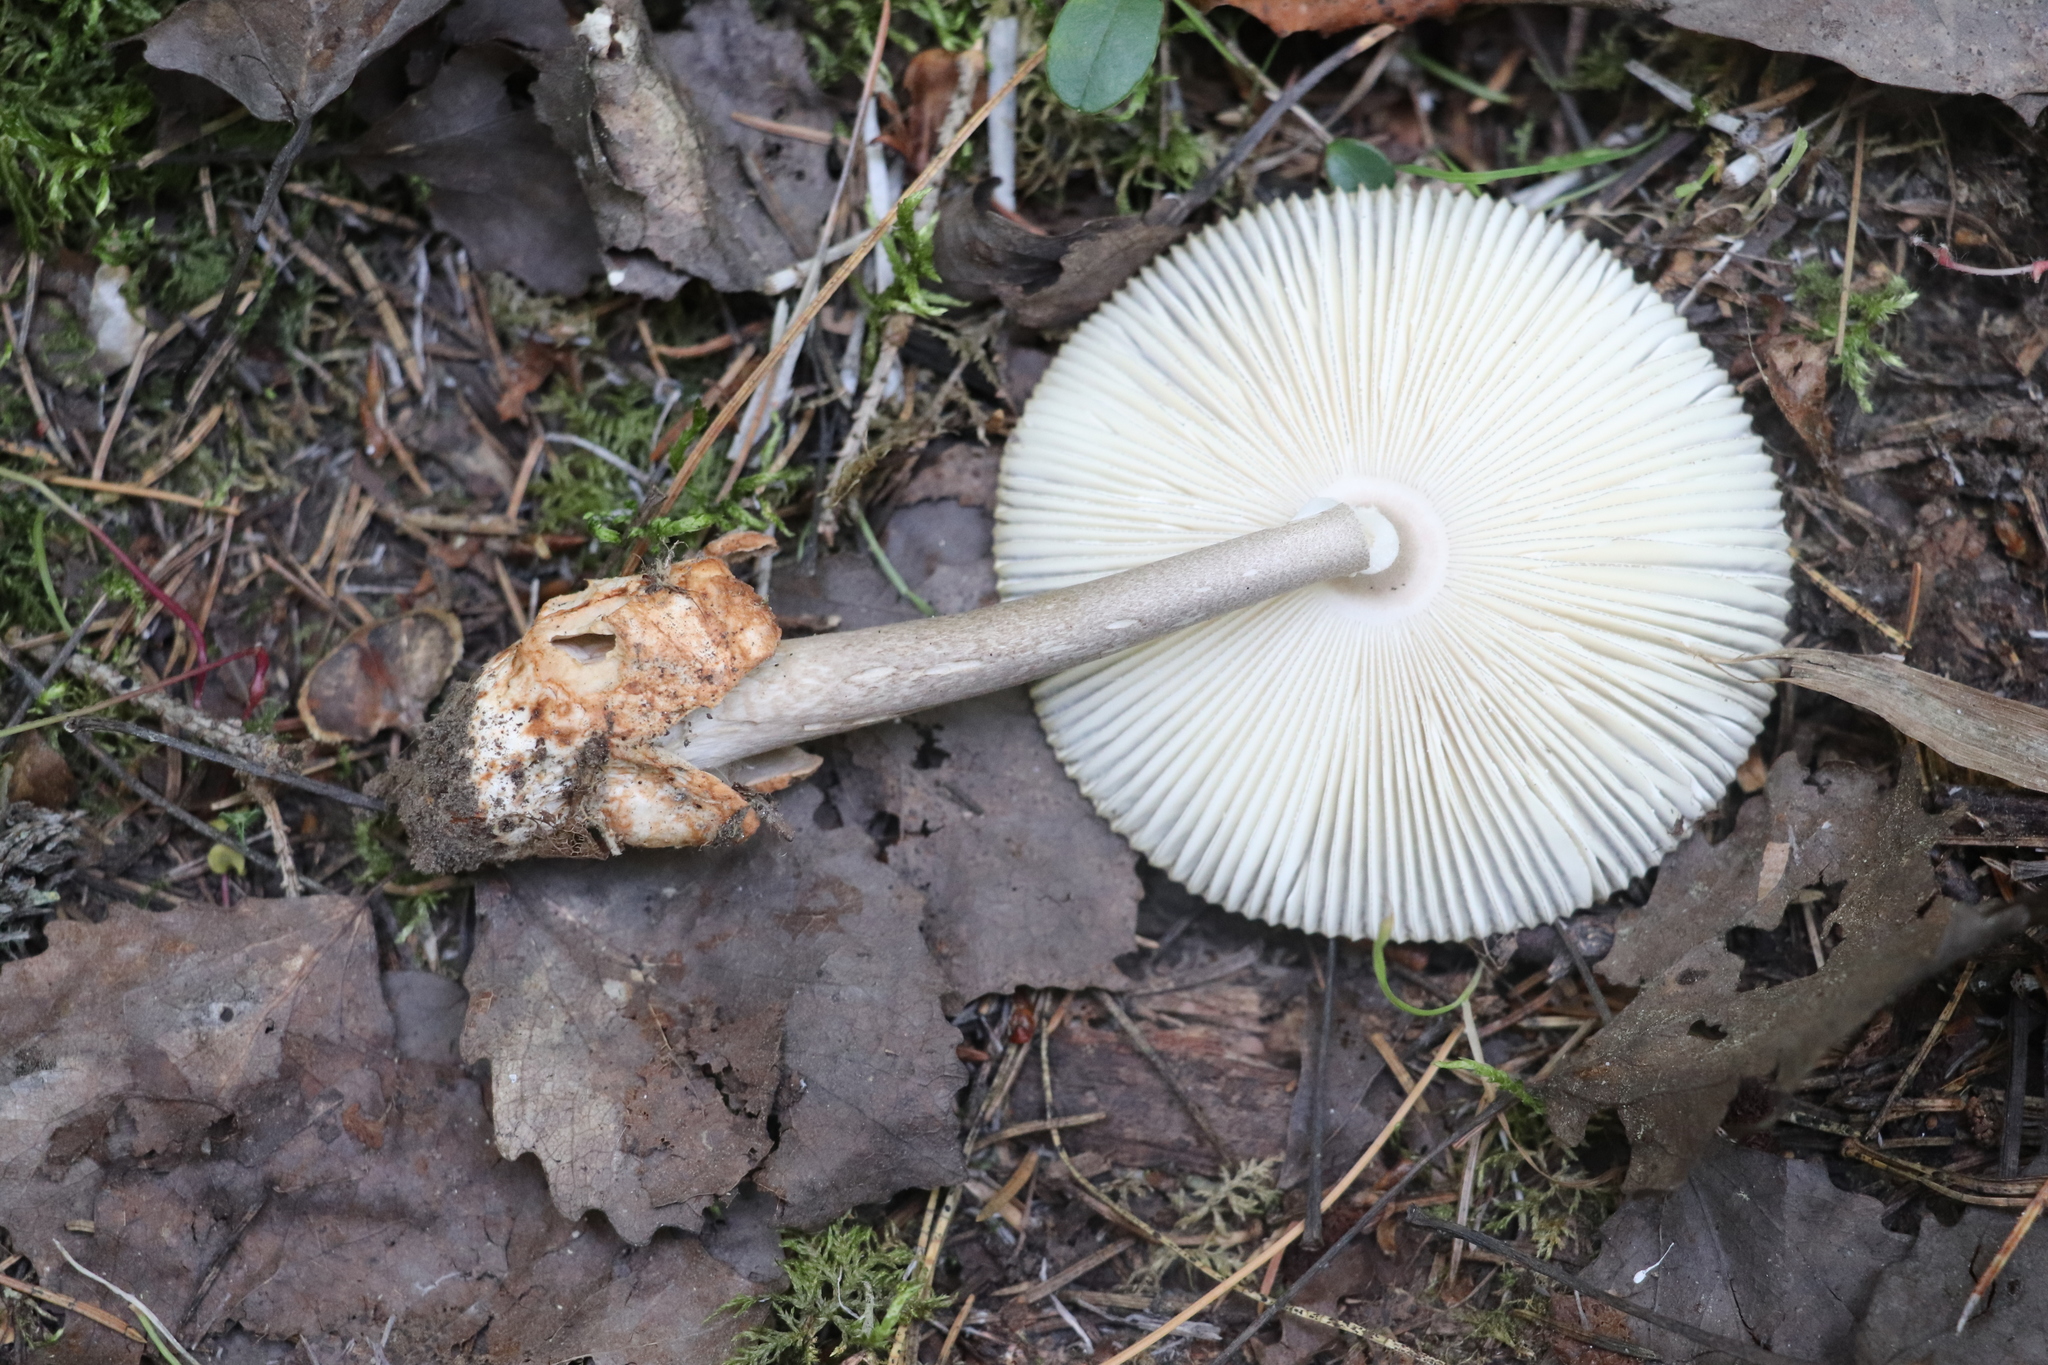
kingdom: Fungi
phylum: Basidiomycota
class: Agaricomycetes
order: Agaricales
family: Amanitaceae
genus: Amanita
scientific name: Amanita battarrae
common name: Banded amanita
